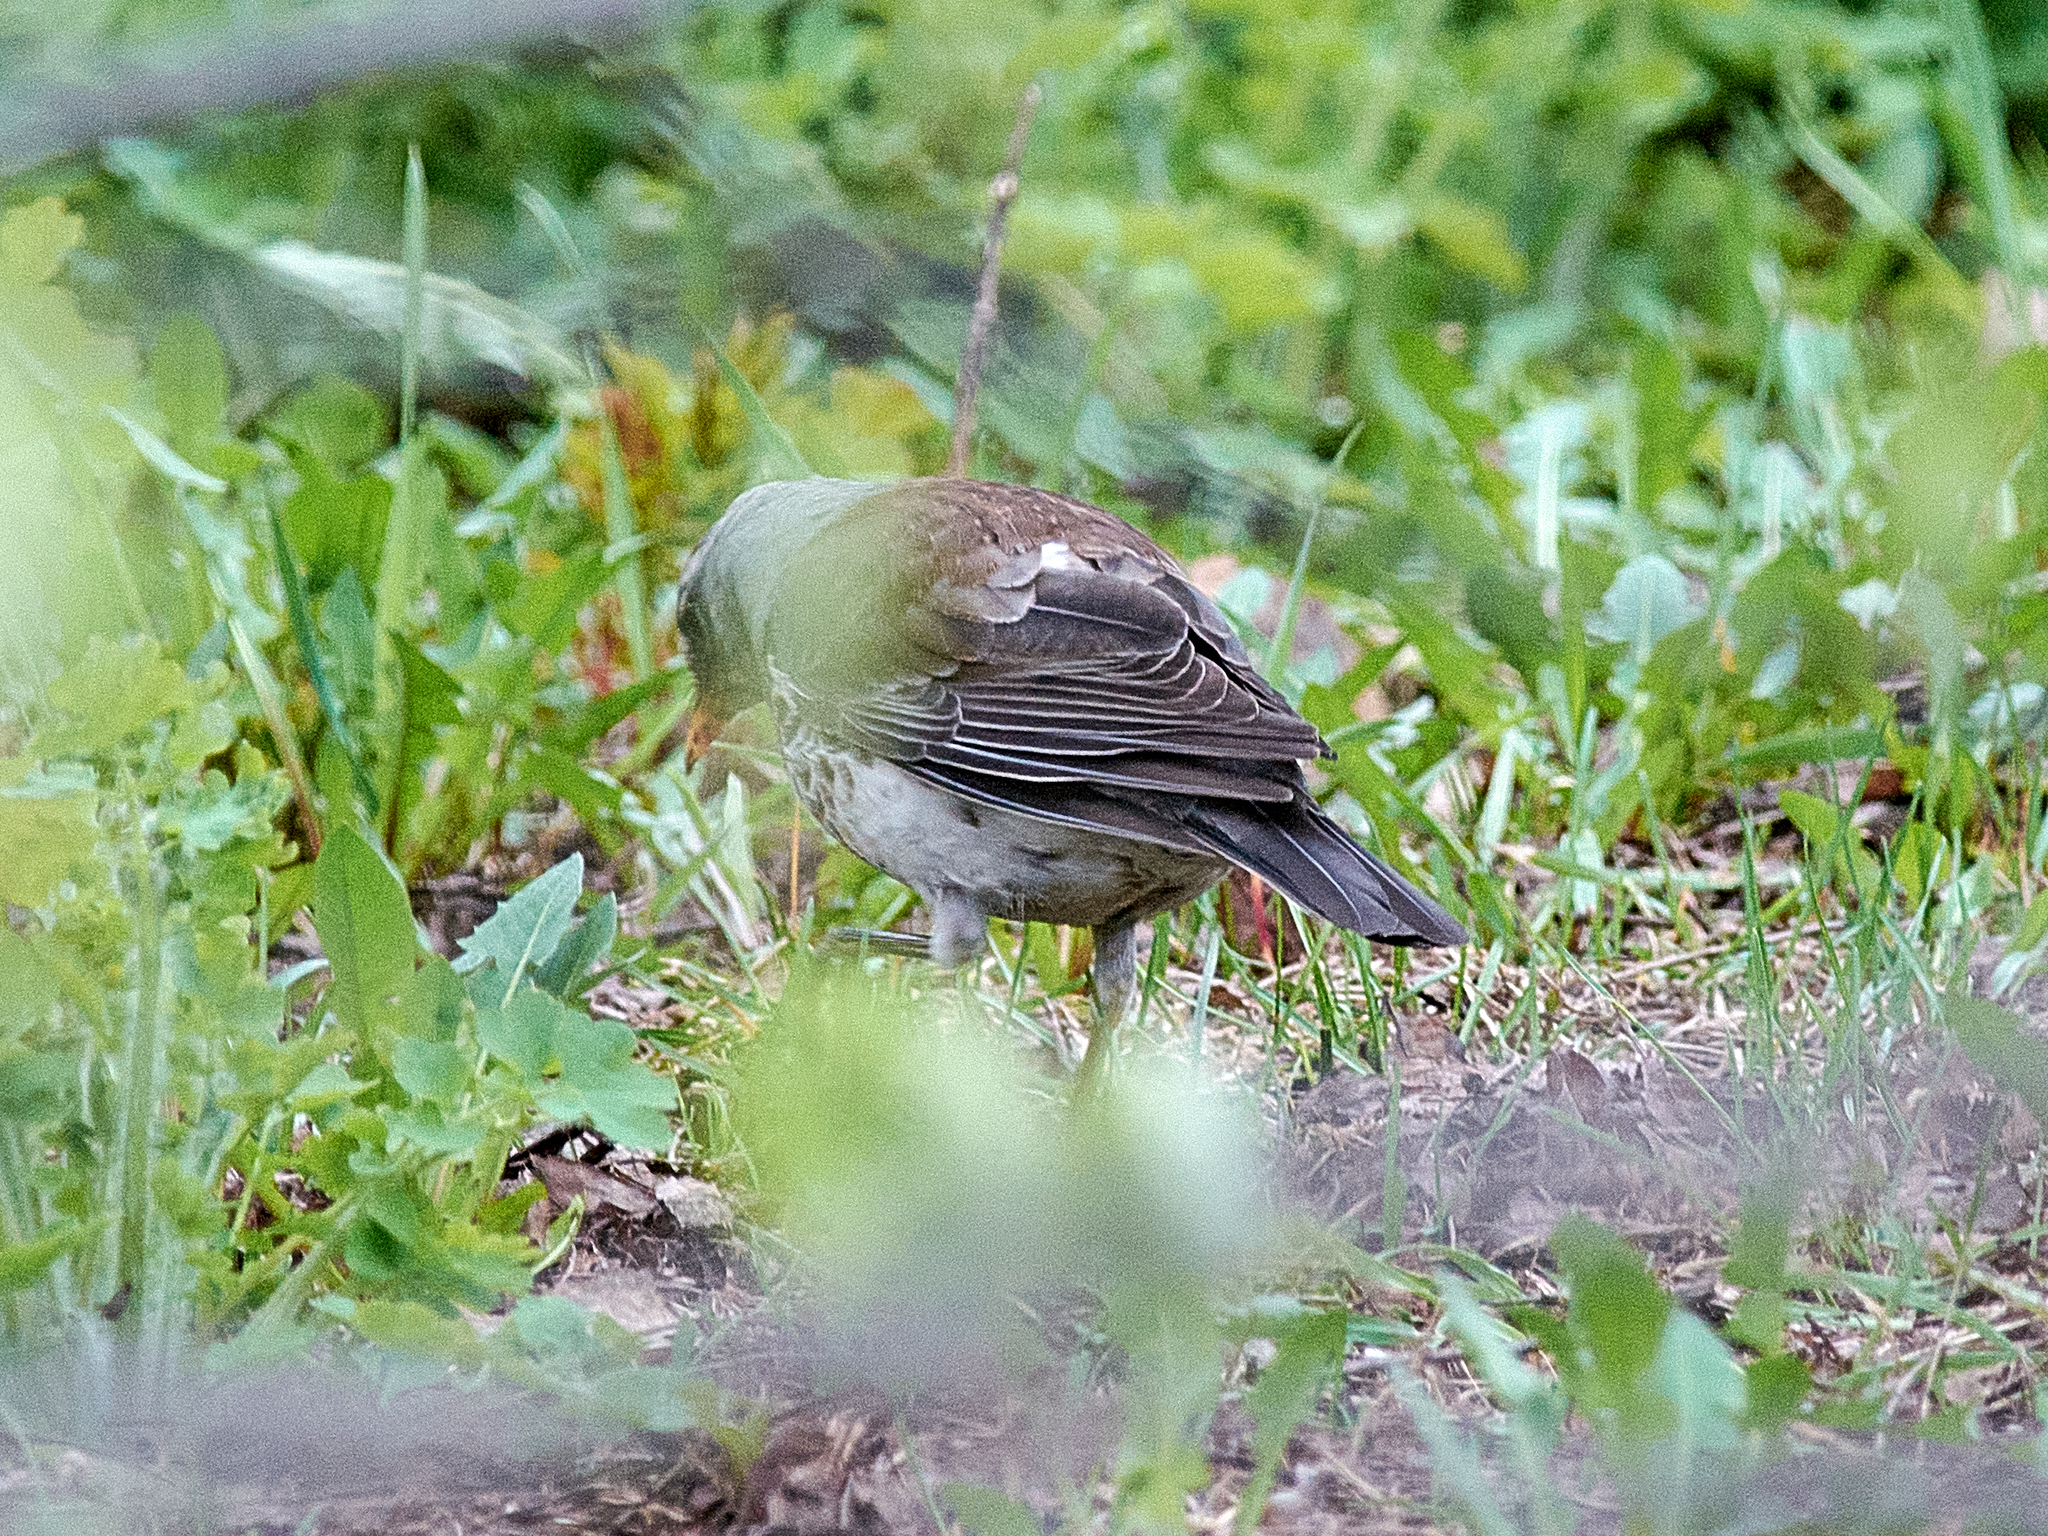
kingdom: Animalia
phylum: Chordata
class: Aves
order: Passeriformes
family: Turdidae
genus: Turdus
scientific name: Turdus pilaris
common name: Fieldfare
